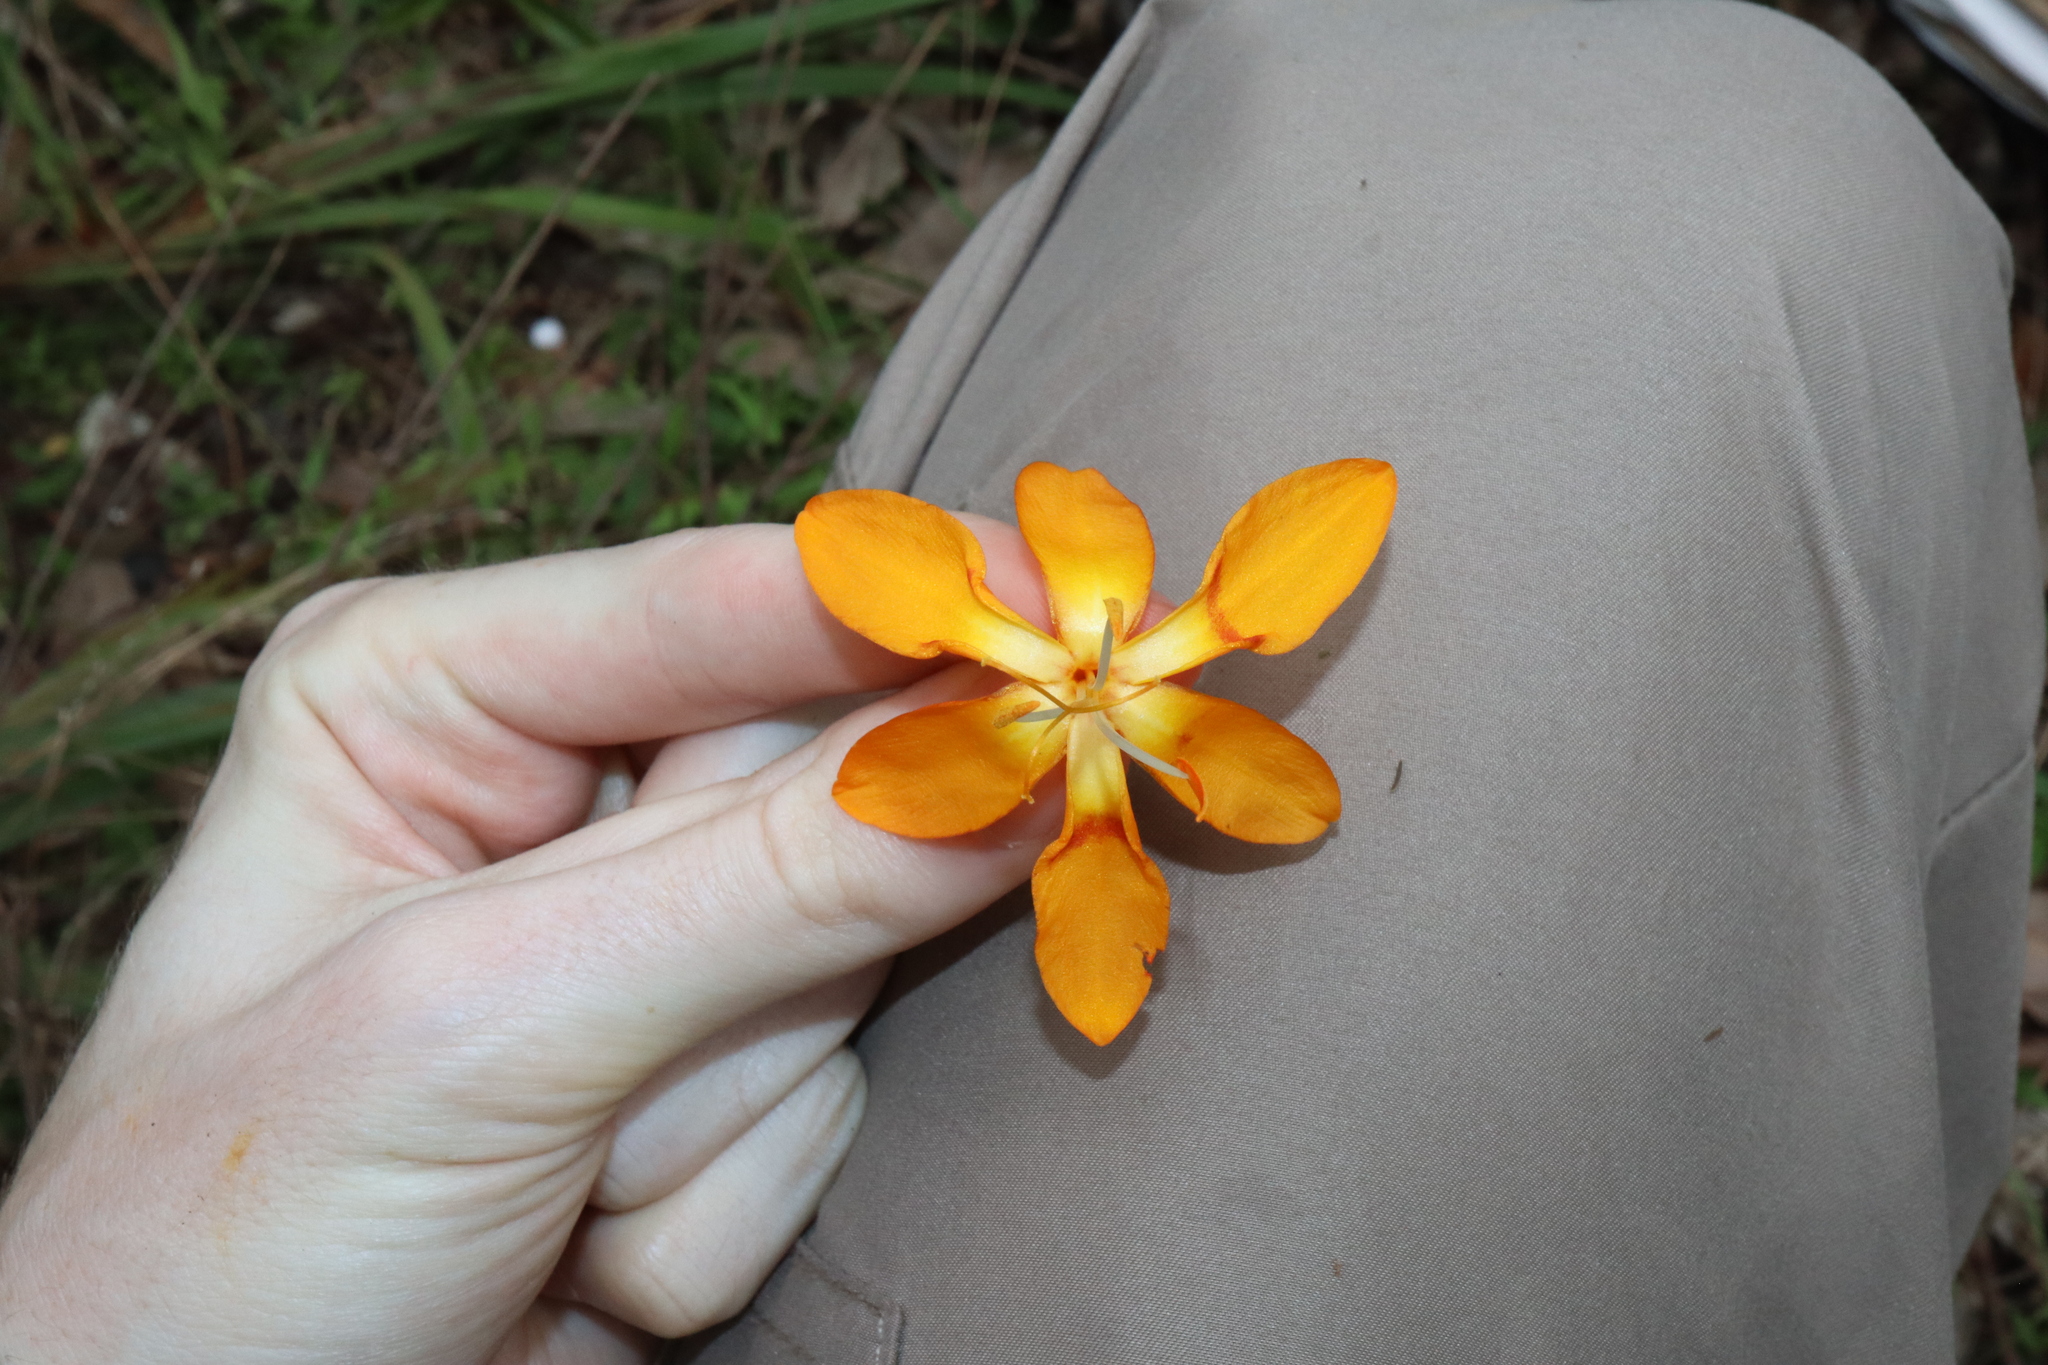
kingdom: Plantae
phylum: Tracheophyta
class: Liliopsida
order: Asparagales
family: Iridaceae
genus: Crocosmia
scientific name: Crocosmia aurea
